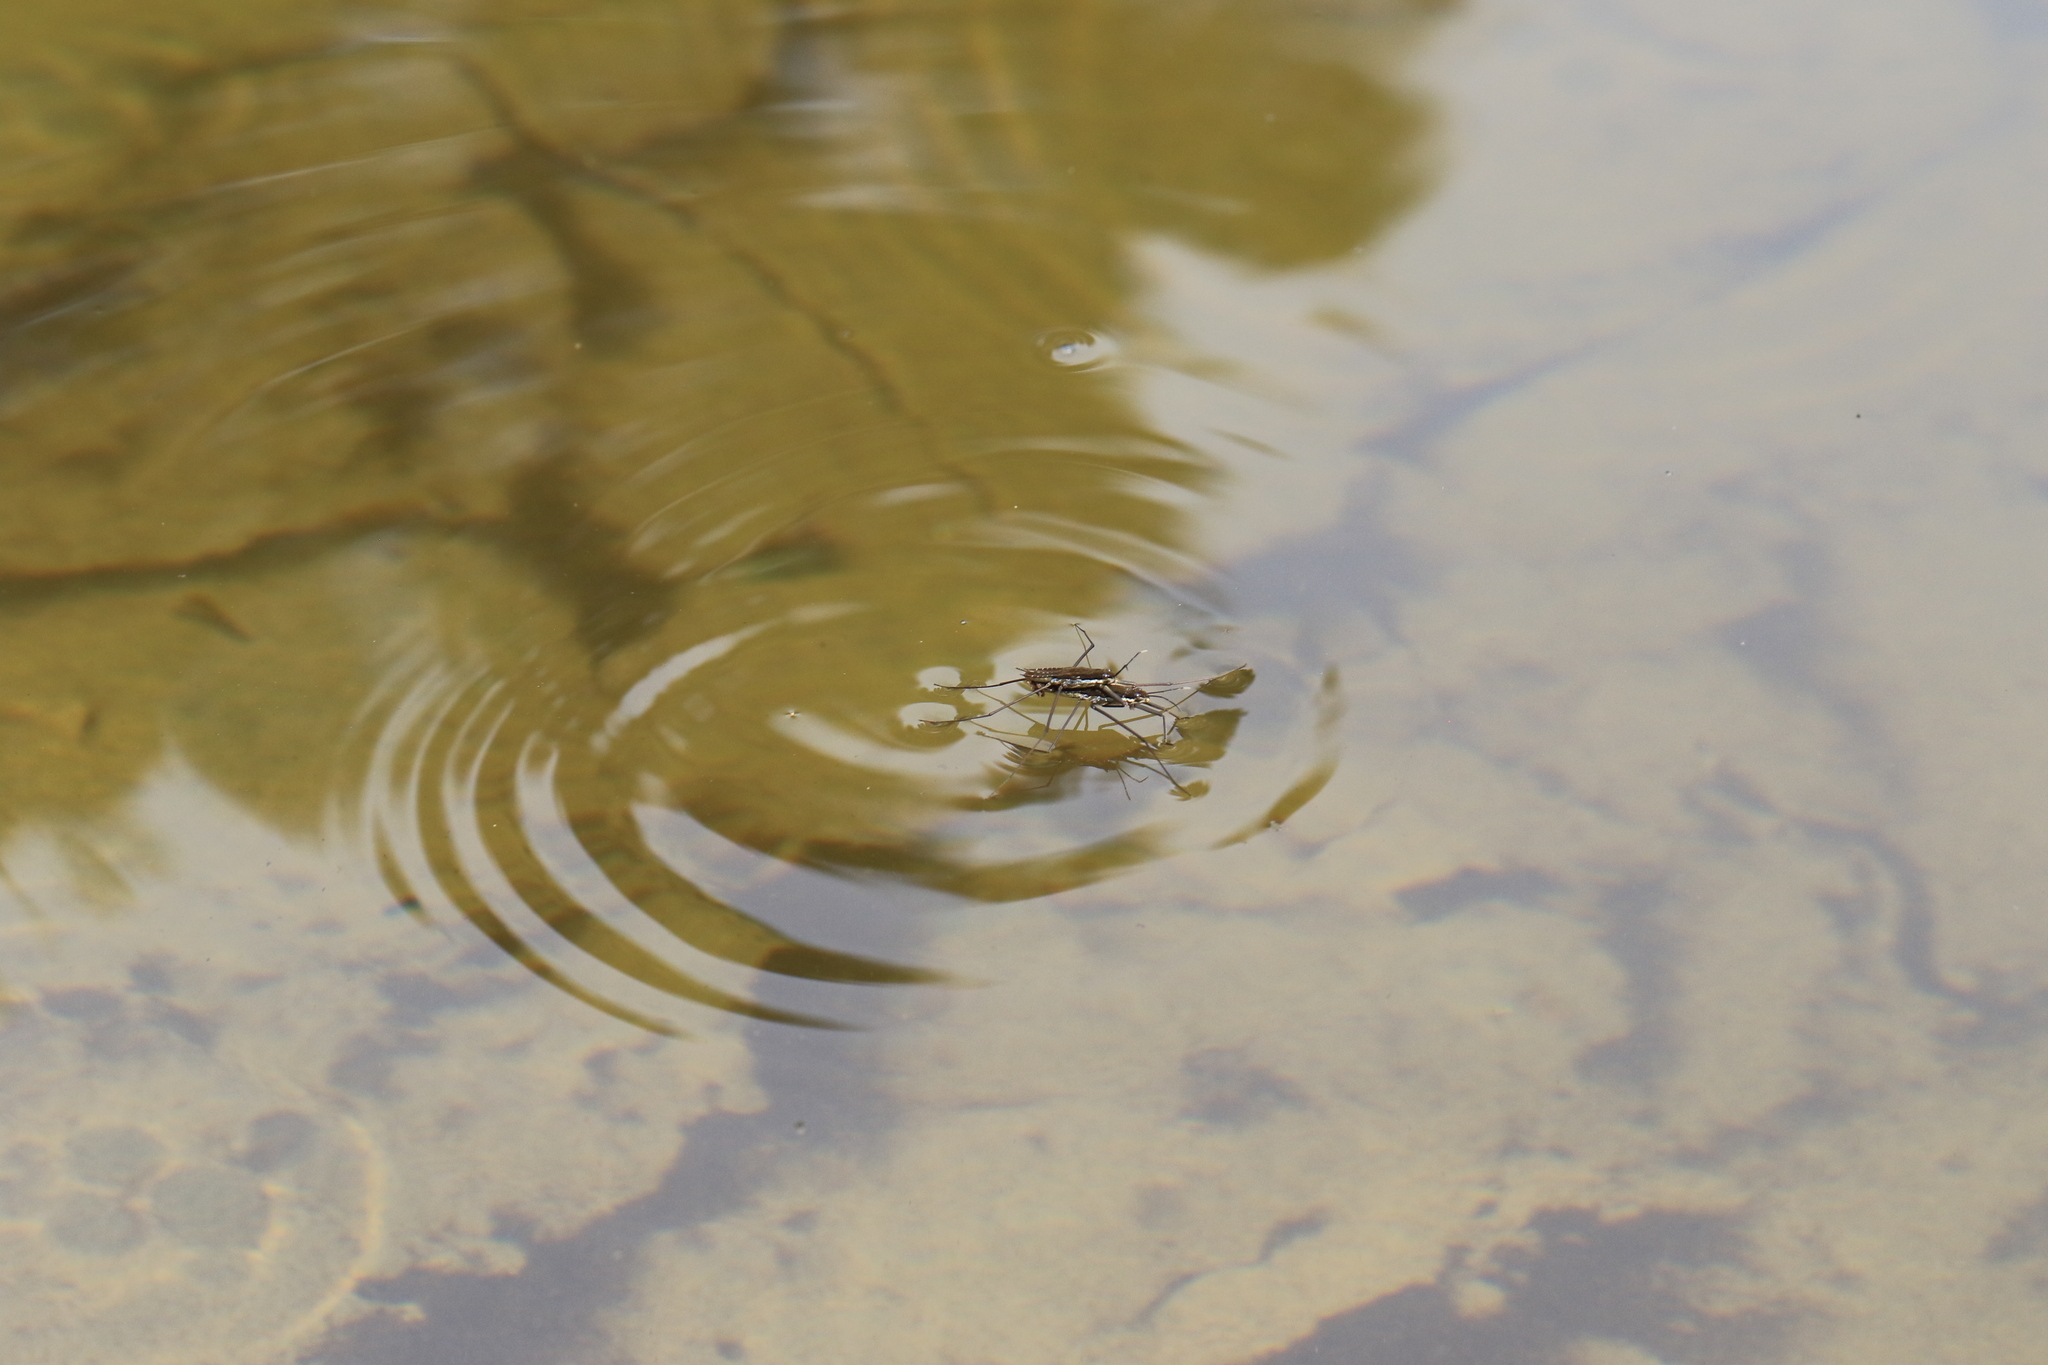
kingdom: Animalia
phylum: Arthropoda
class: Insecta
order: Hemiptera
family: Gerridae
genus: Aquarius
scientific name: Aquarius remigis
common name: Common water strider
